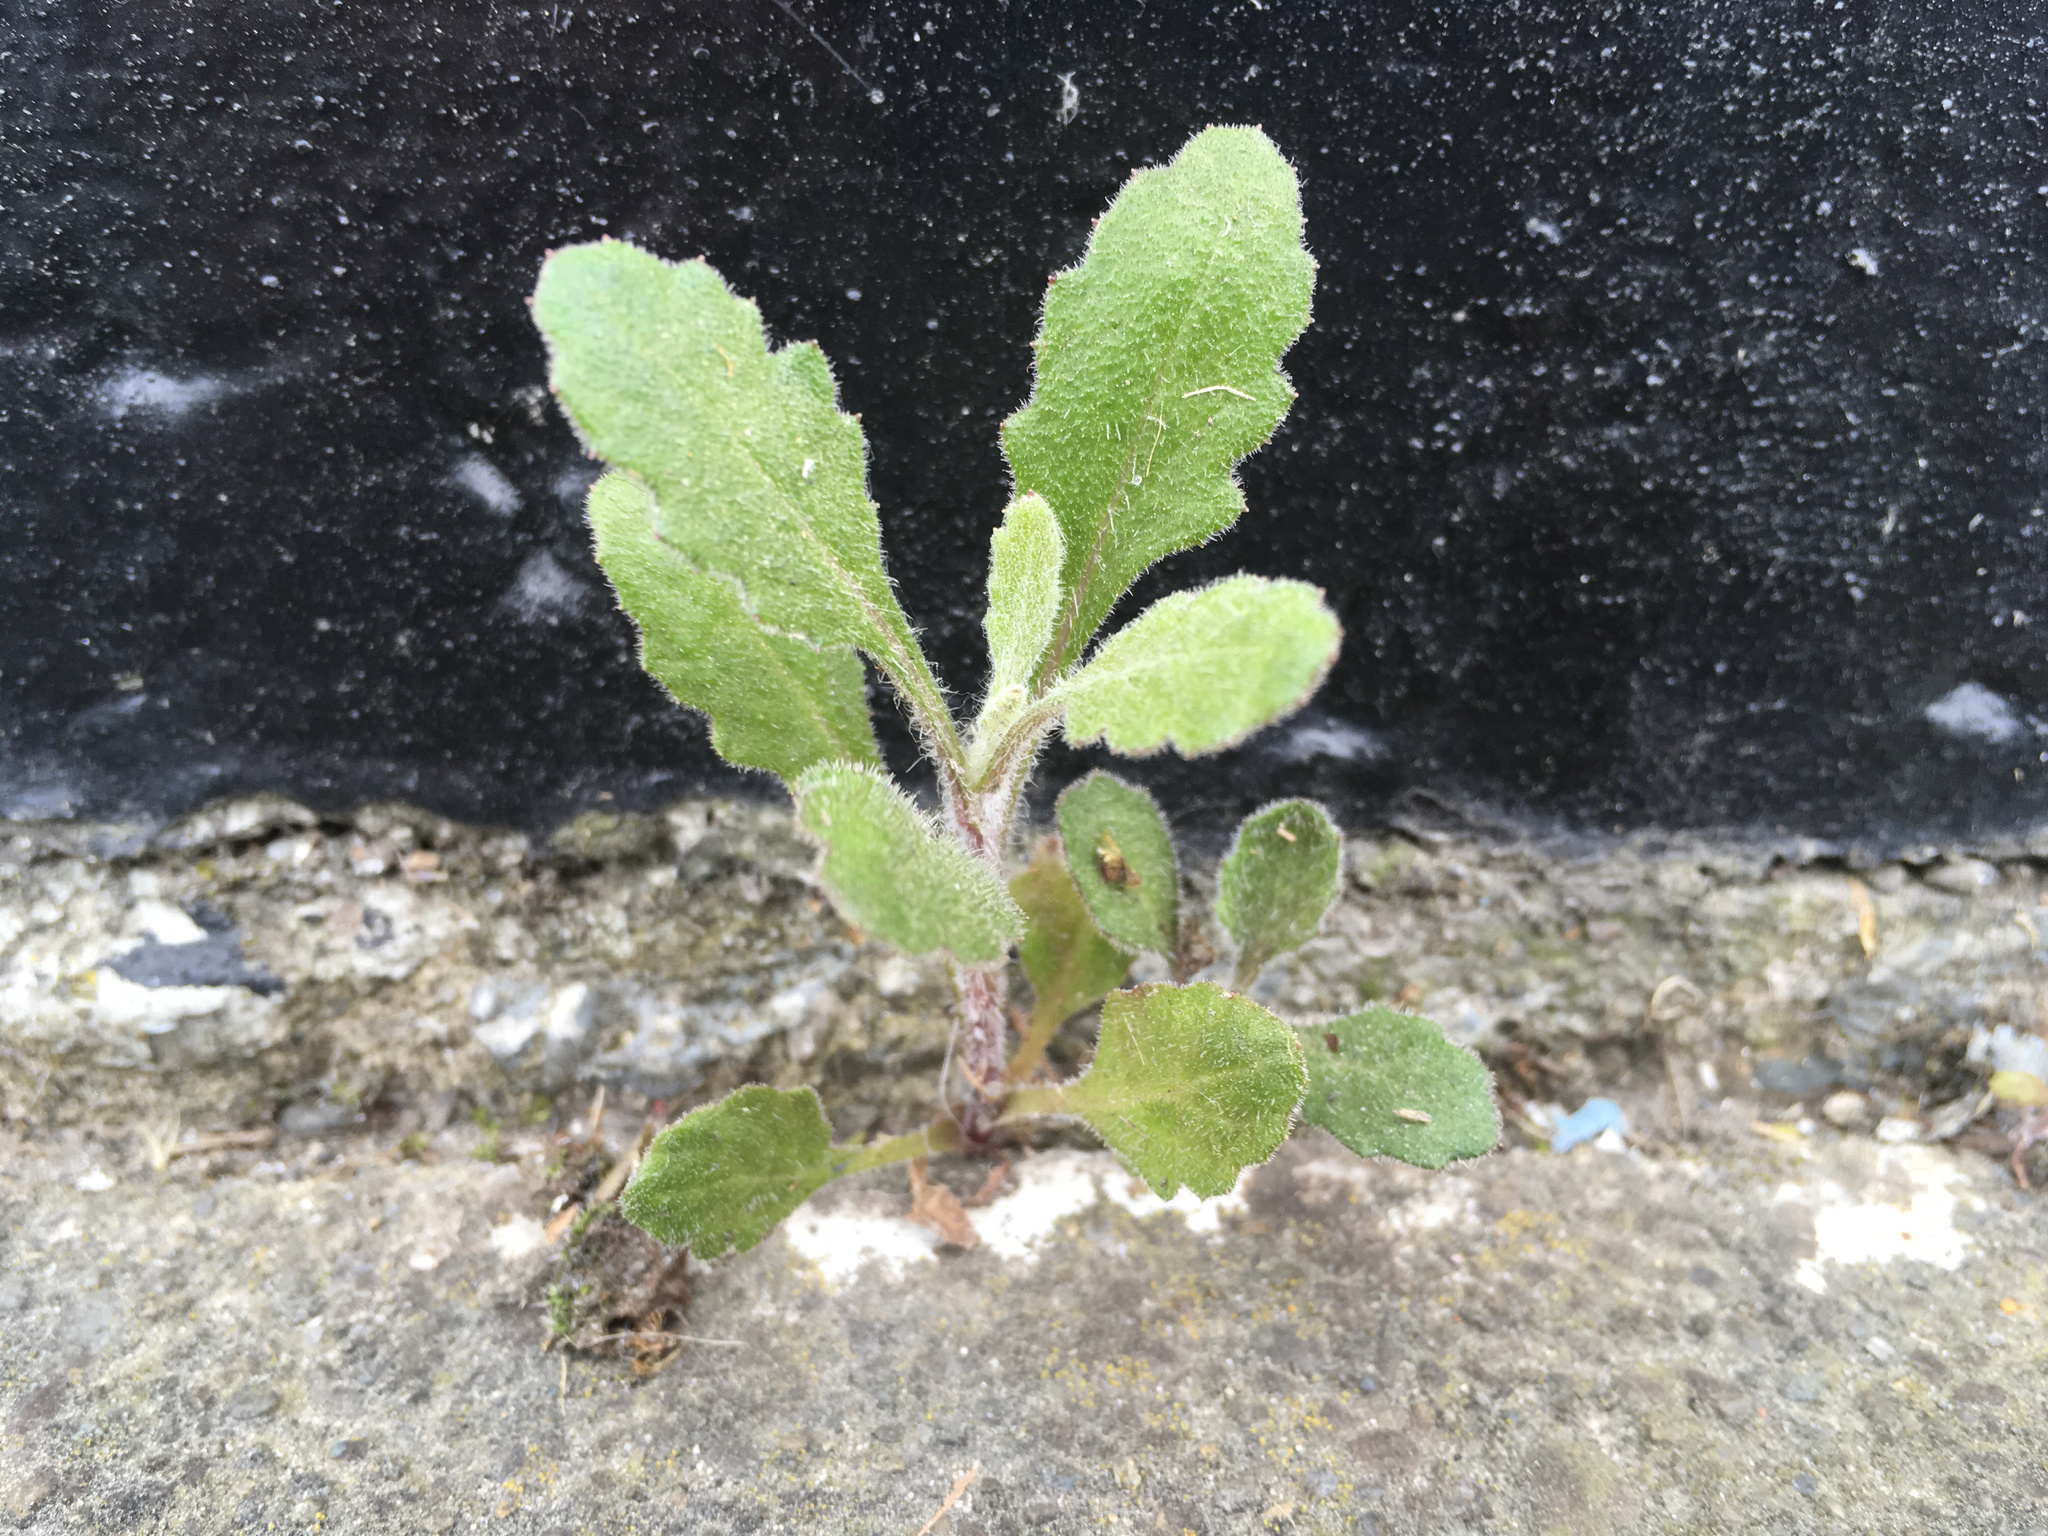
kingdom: Plantae
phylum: Tracheophyta
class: Magnoliopsida
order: Asterales
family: Asteraceae
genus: Senecio
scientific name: Senecio glomeratus
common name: Cutleaf burnweed
